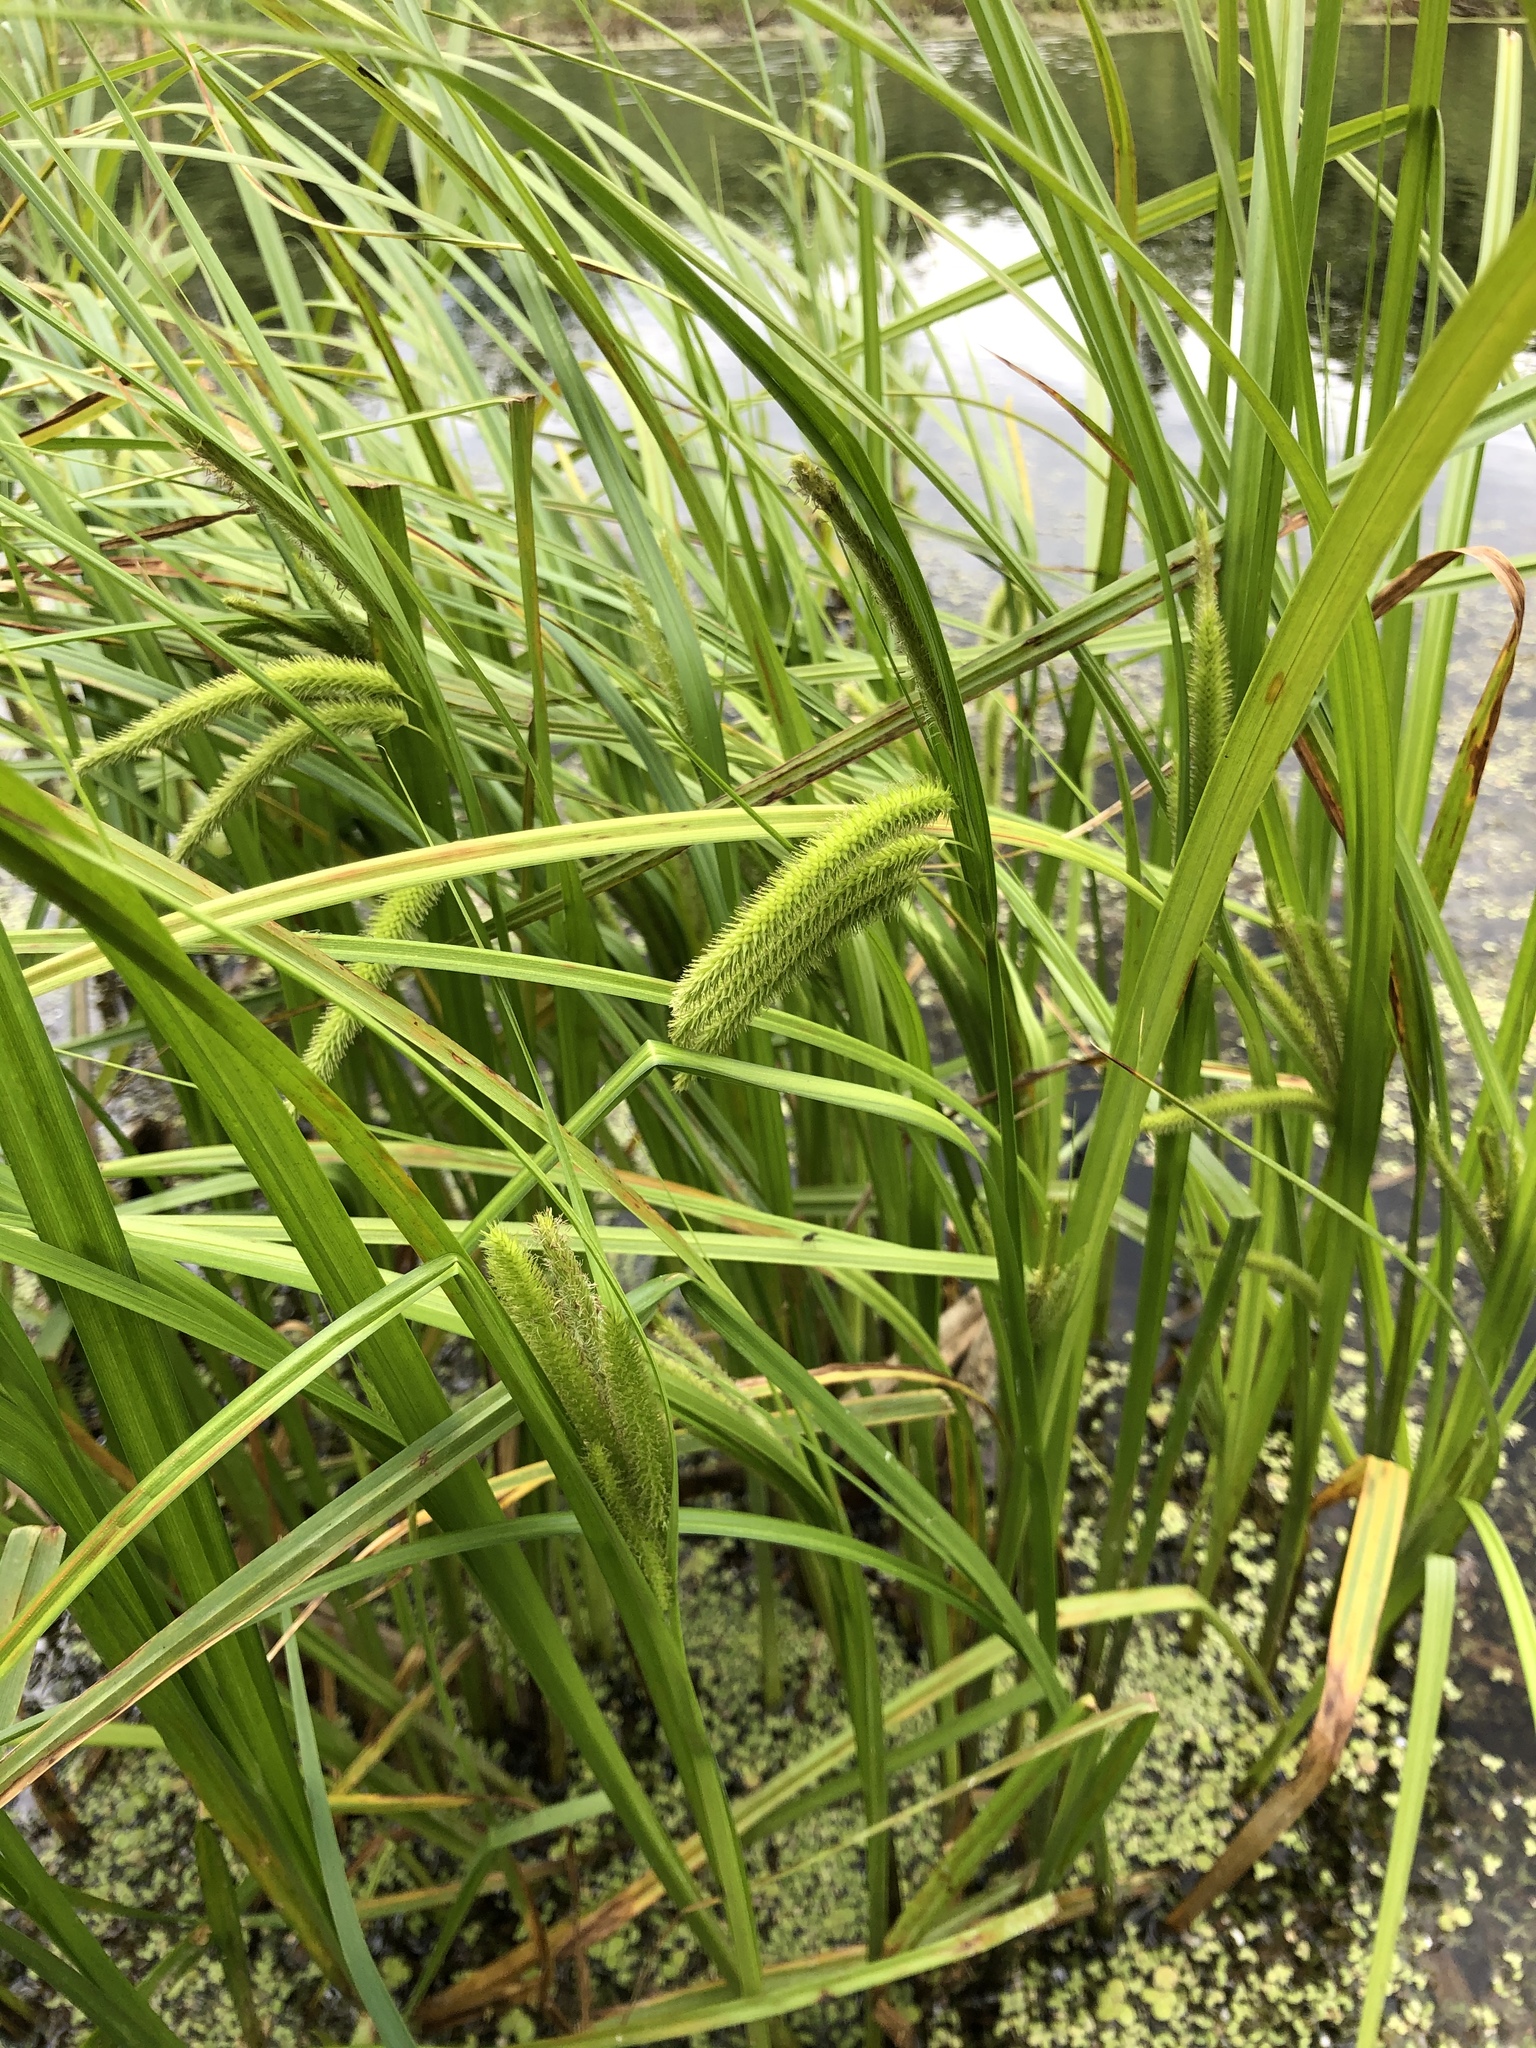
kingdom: Plantae
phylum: Tracheophyta
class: Liliopsida
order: Poales
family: Cyperaceae
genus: Carex
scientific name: Carex pseudocyperus
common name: Cyperus sedge
